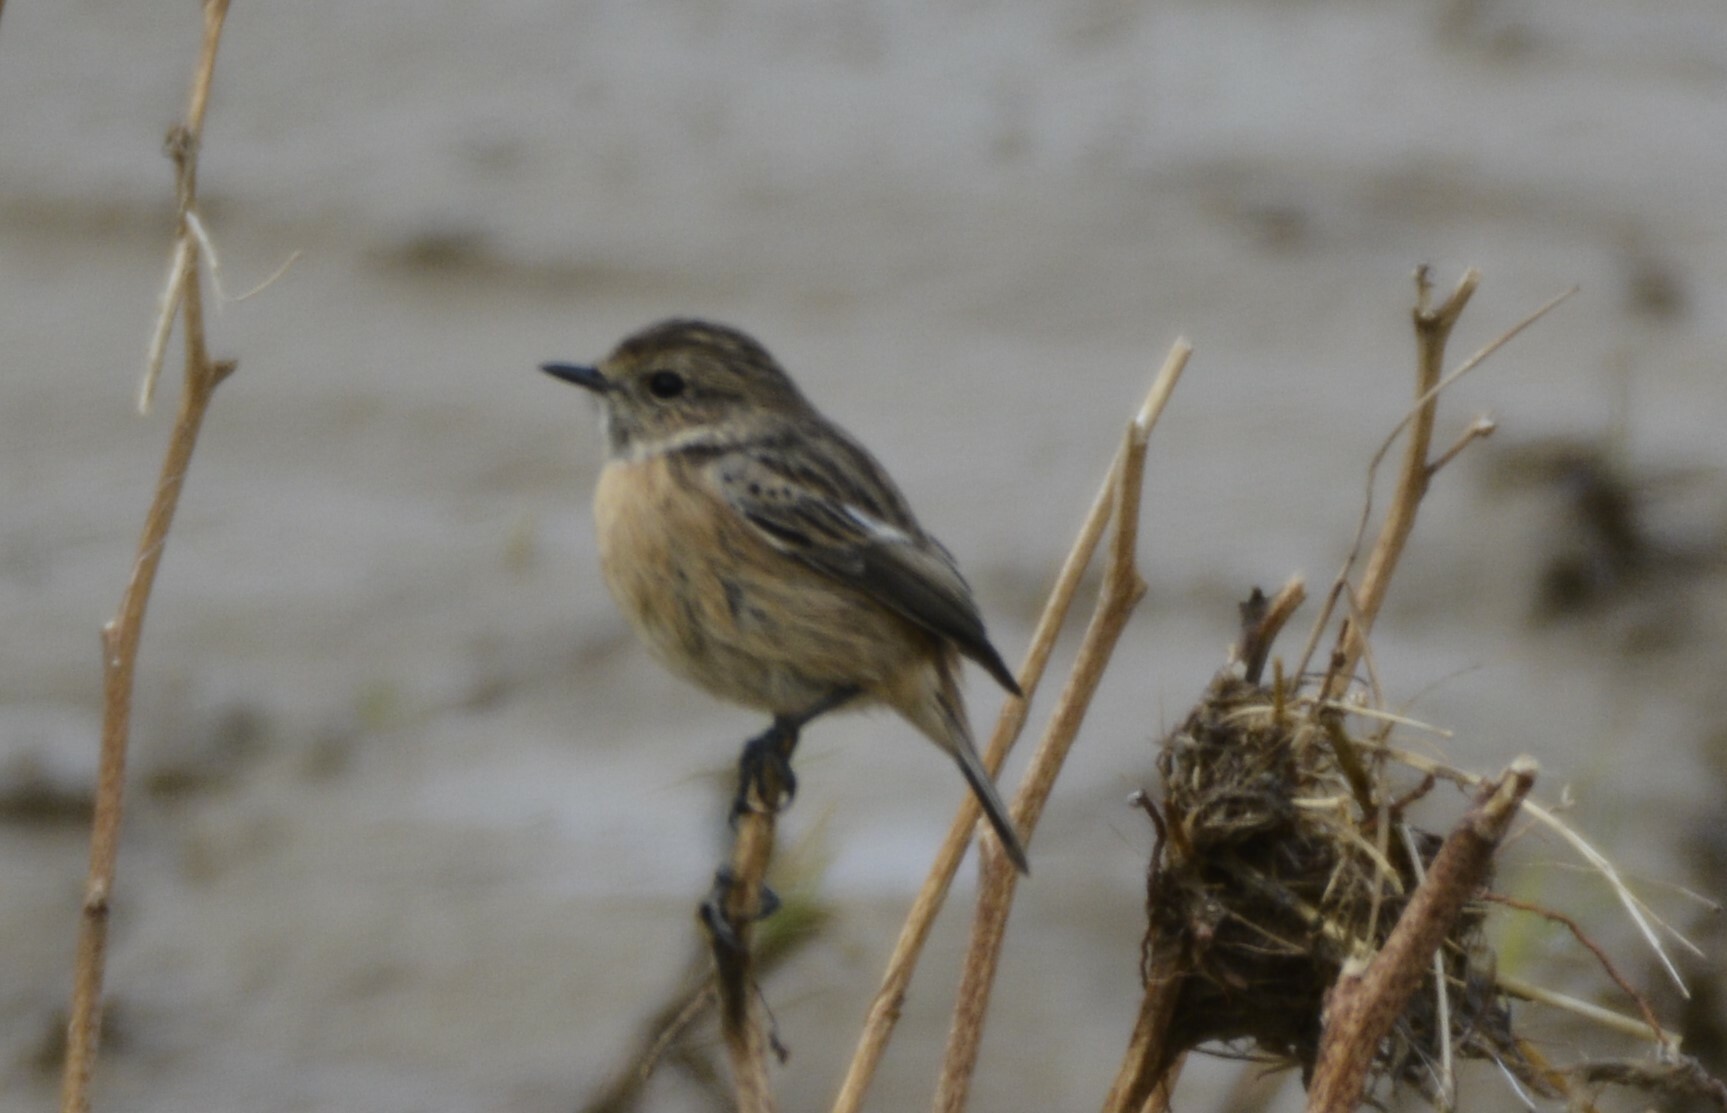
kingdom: Animalia
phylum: Chordata
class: Aves
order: Passeriformes
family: Muscicapidae
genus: Saxicola
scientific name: Saxicola rubicola
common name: European stonechat
